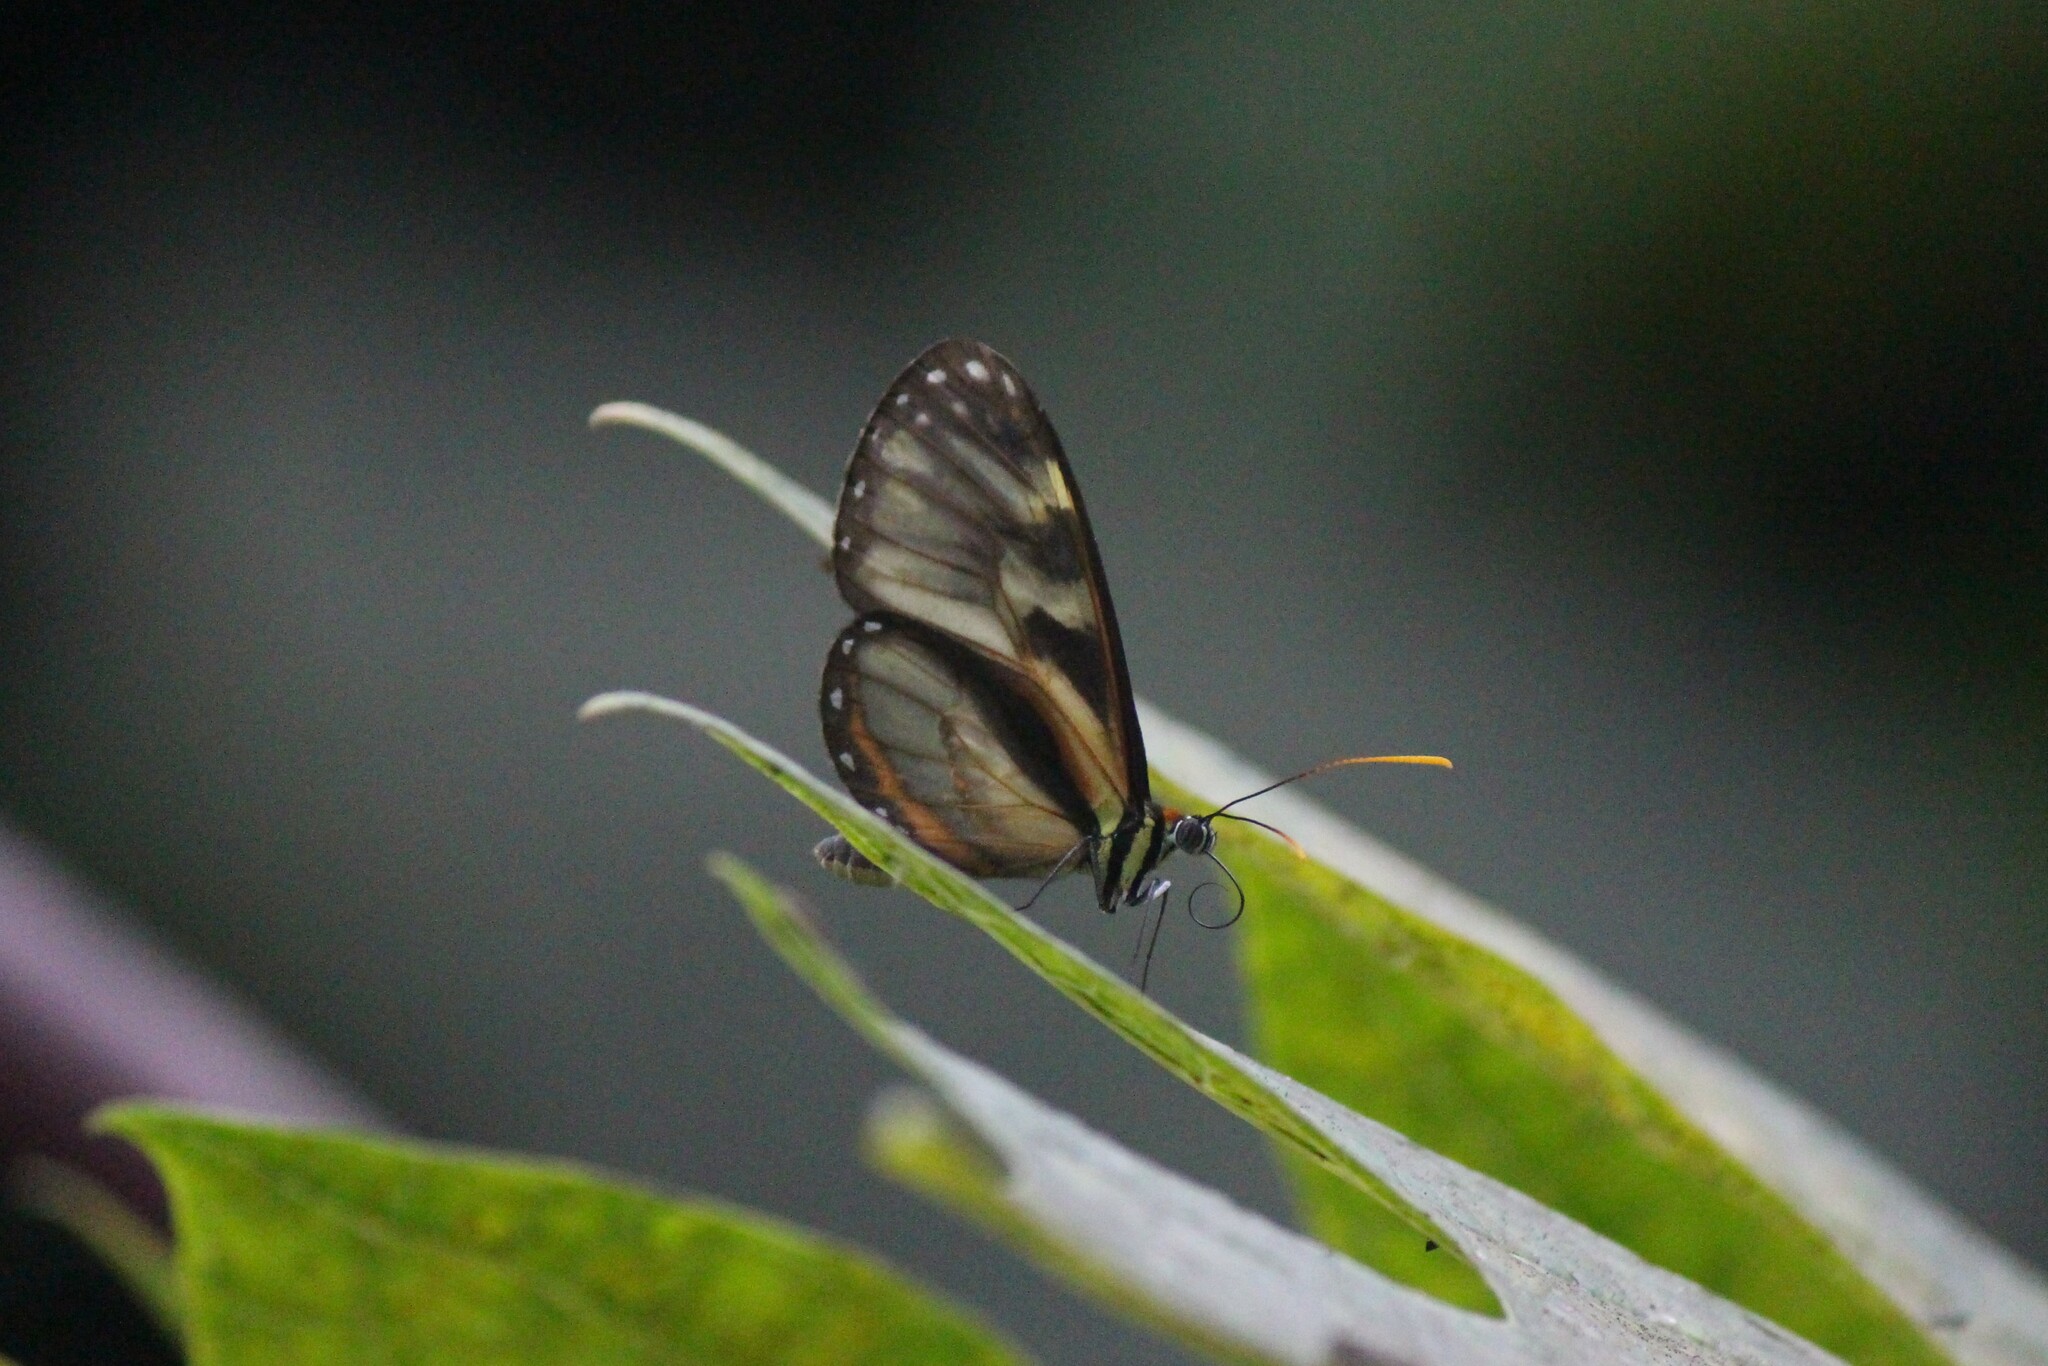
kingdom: Animalia
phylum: Arthropoda
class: Insecta
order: Lepidoptera
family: Nymphalidae
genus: Ithomia
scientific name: Ithomia iphianassa
